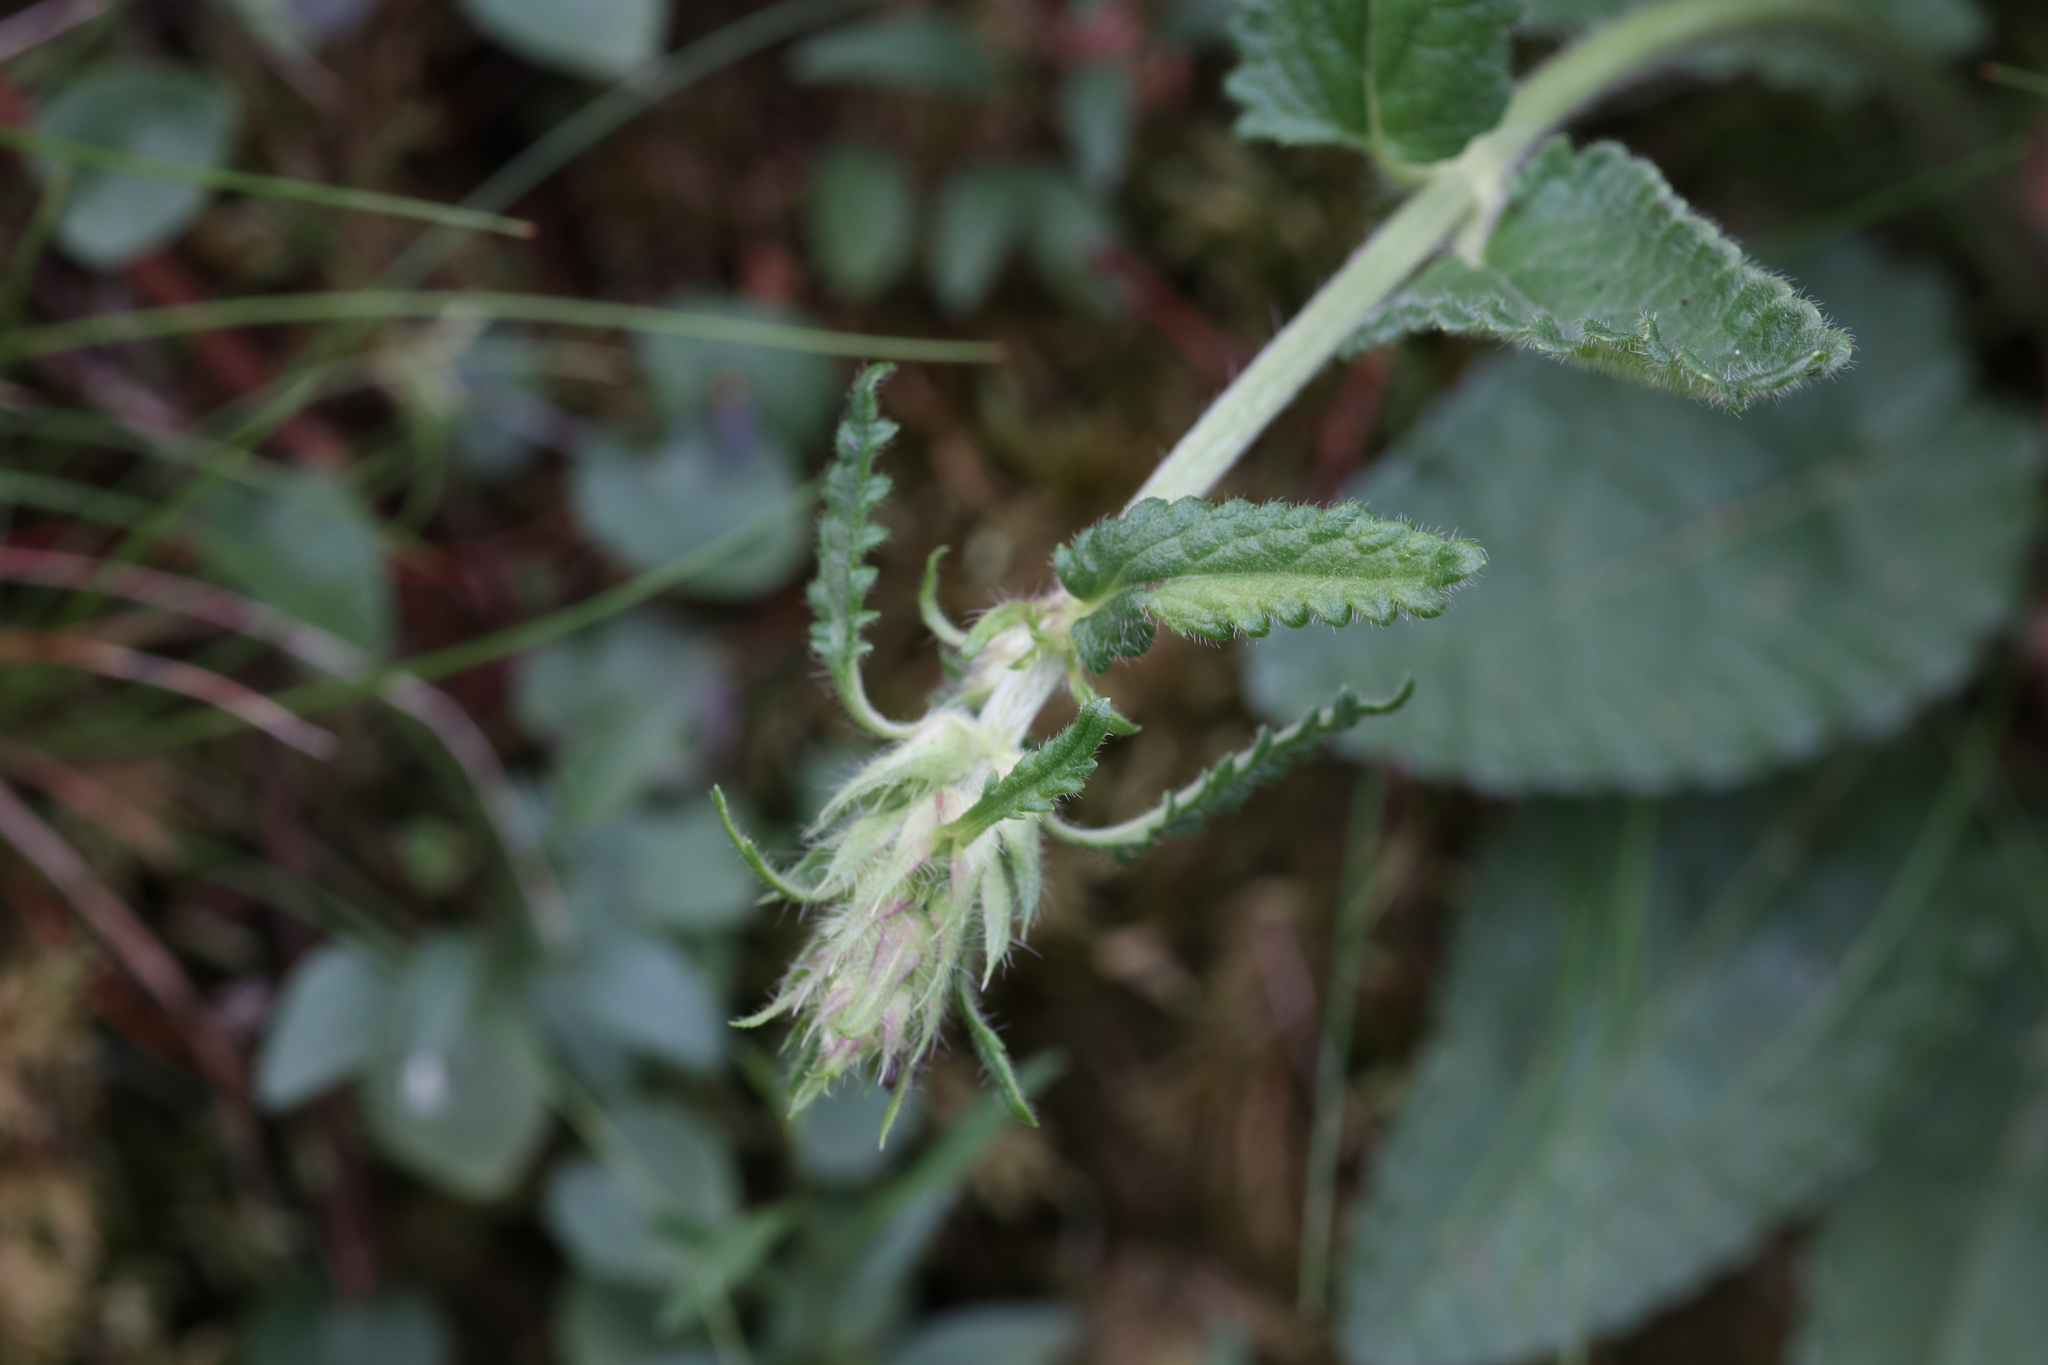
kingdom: Plantae
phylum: Tracheophyta
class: Magnoliopsida
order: Lamiales
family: Lamiaceae
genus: Betonica
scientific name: Betonica officinalis
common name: Bishop's-wort
